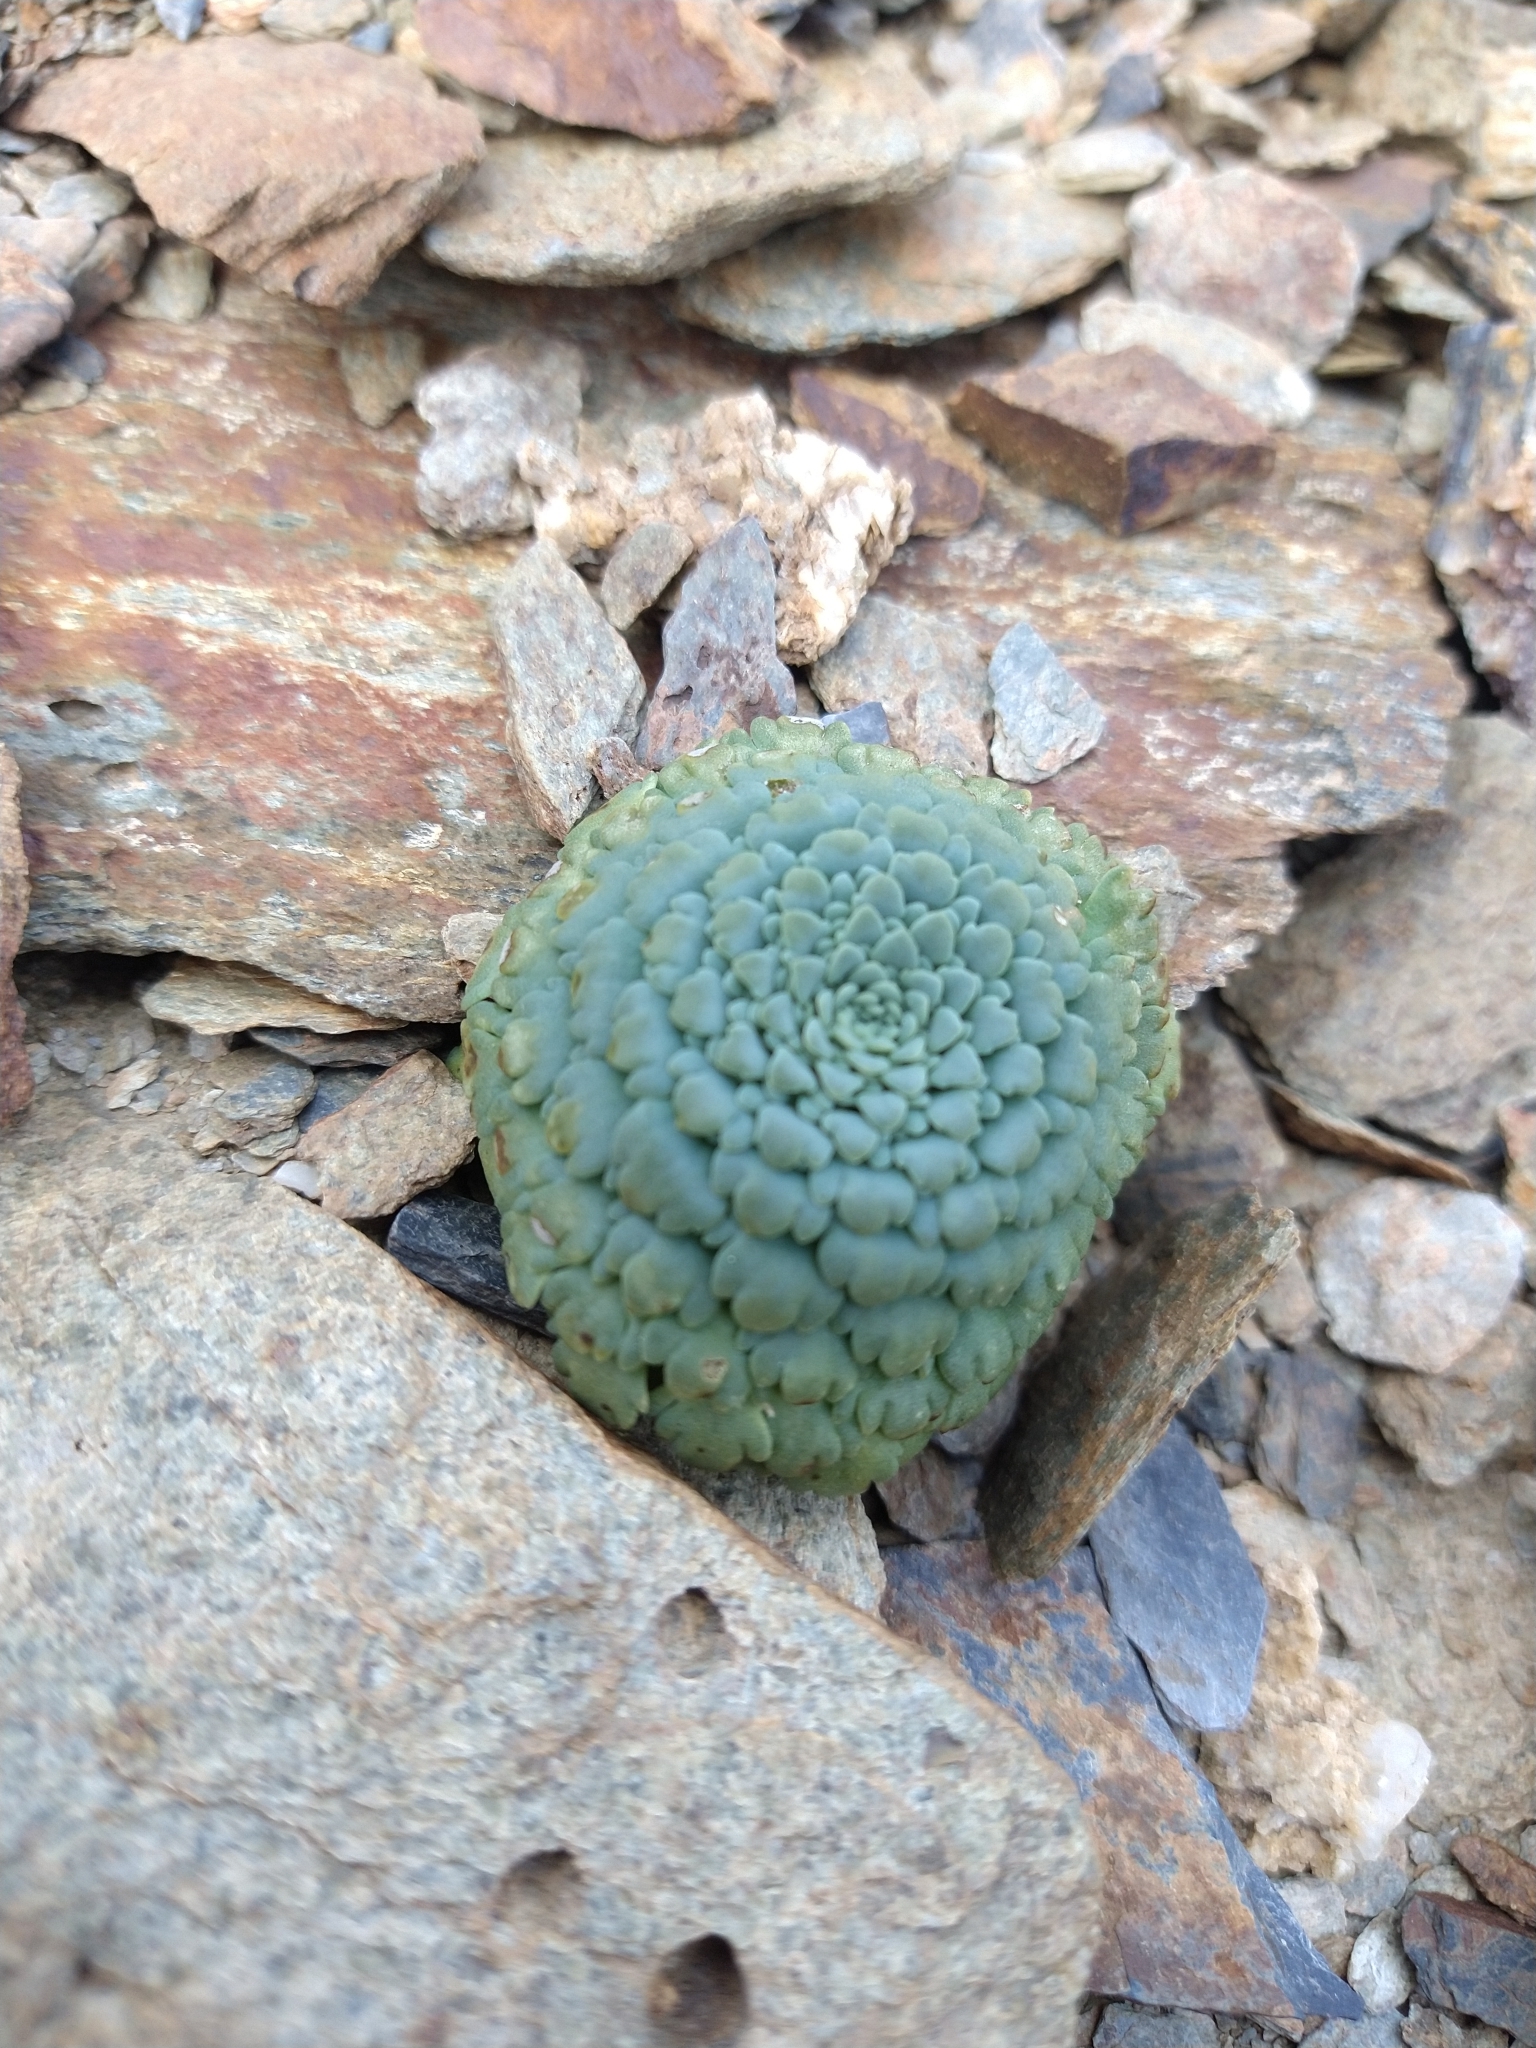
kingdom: Plantae
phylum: Tracheophyta
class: Magnoliopsida
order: Asterales
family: Calyceraceae
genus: Moschopsis
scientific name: Moschopsis rosulata
